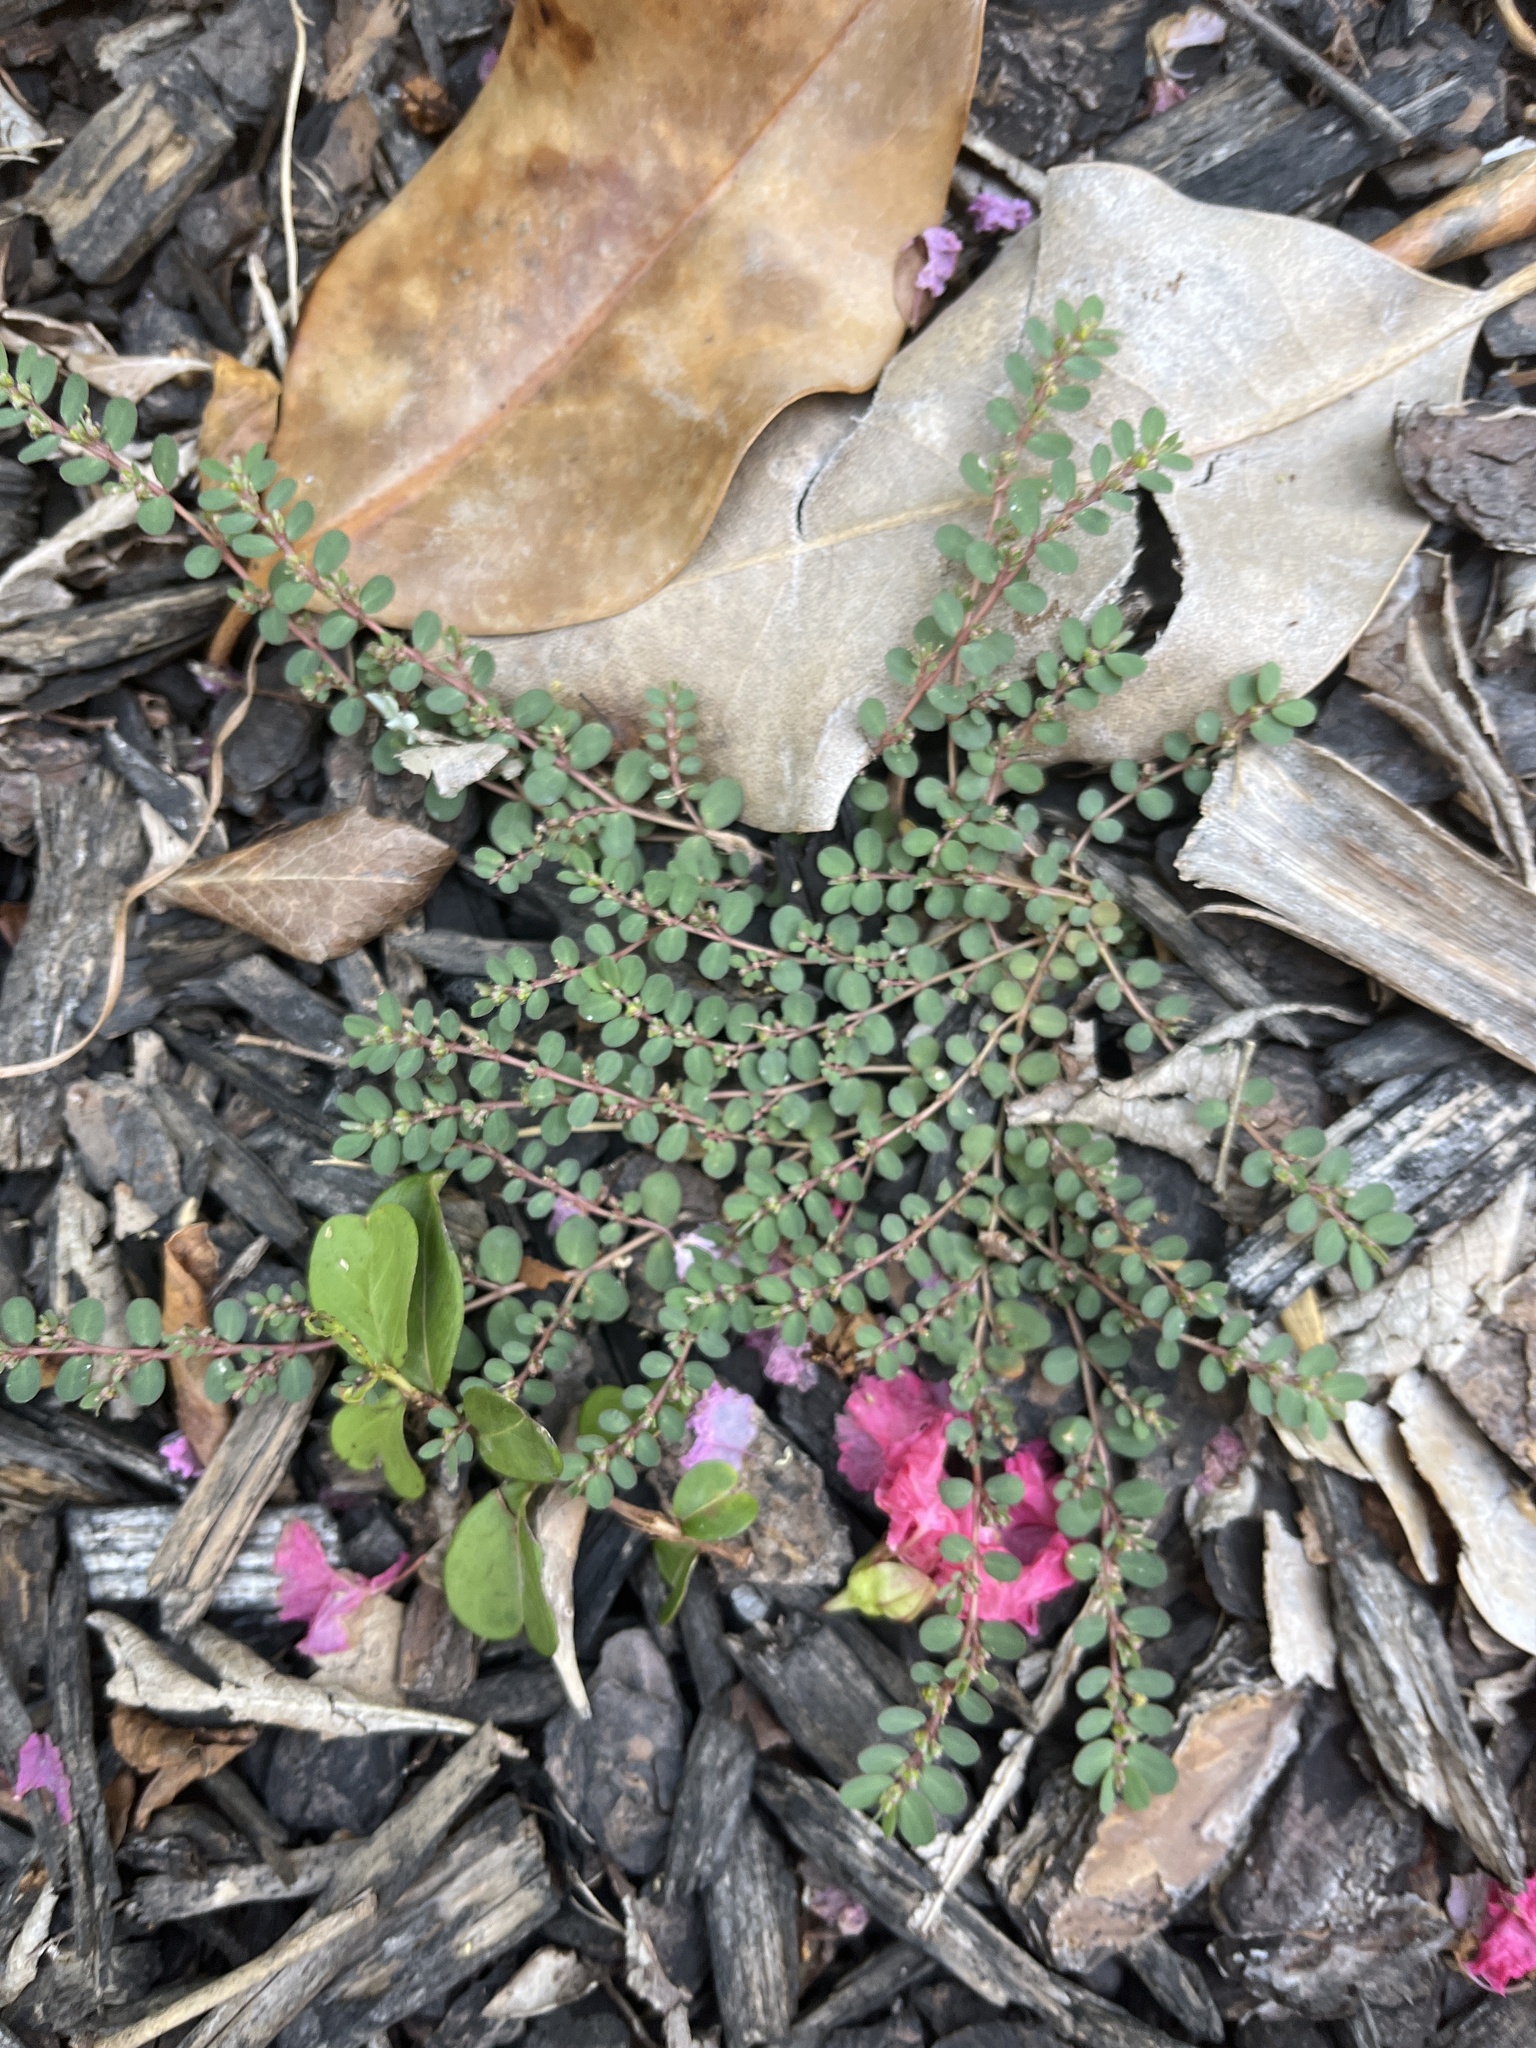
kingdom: Plantae
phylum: Tracheophyta
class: Magnoliopsida
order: Malpighiales
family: Euphorbiaceae
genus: Euphorbia
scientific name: Euphorbia prostrata
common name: Prostrate sandmat
